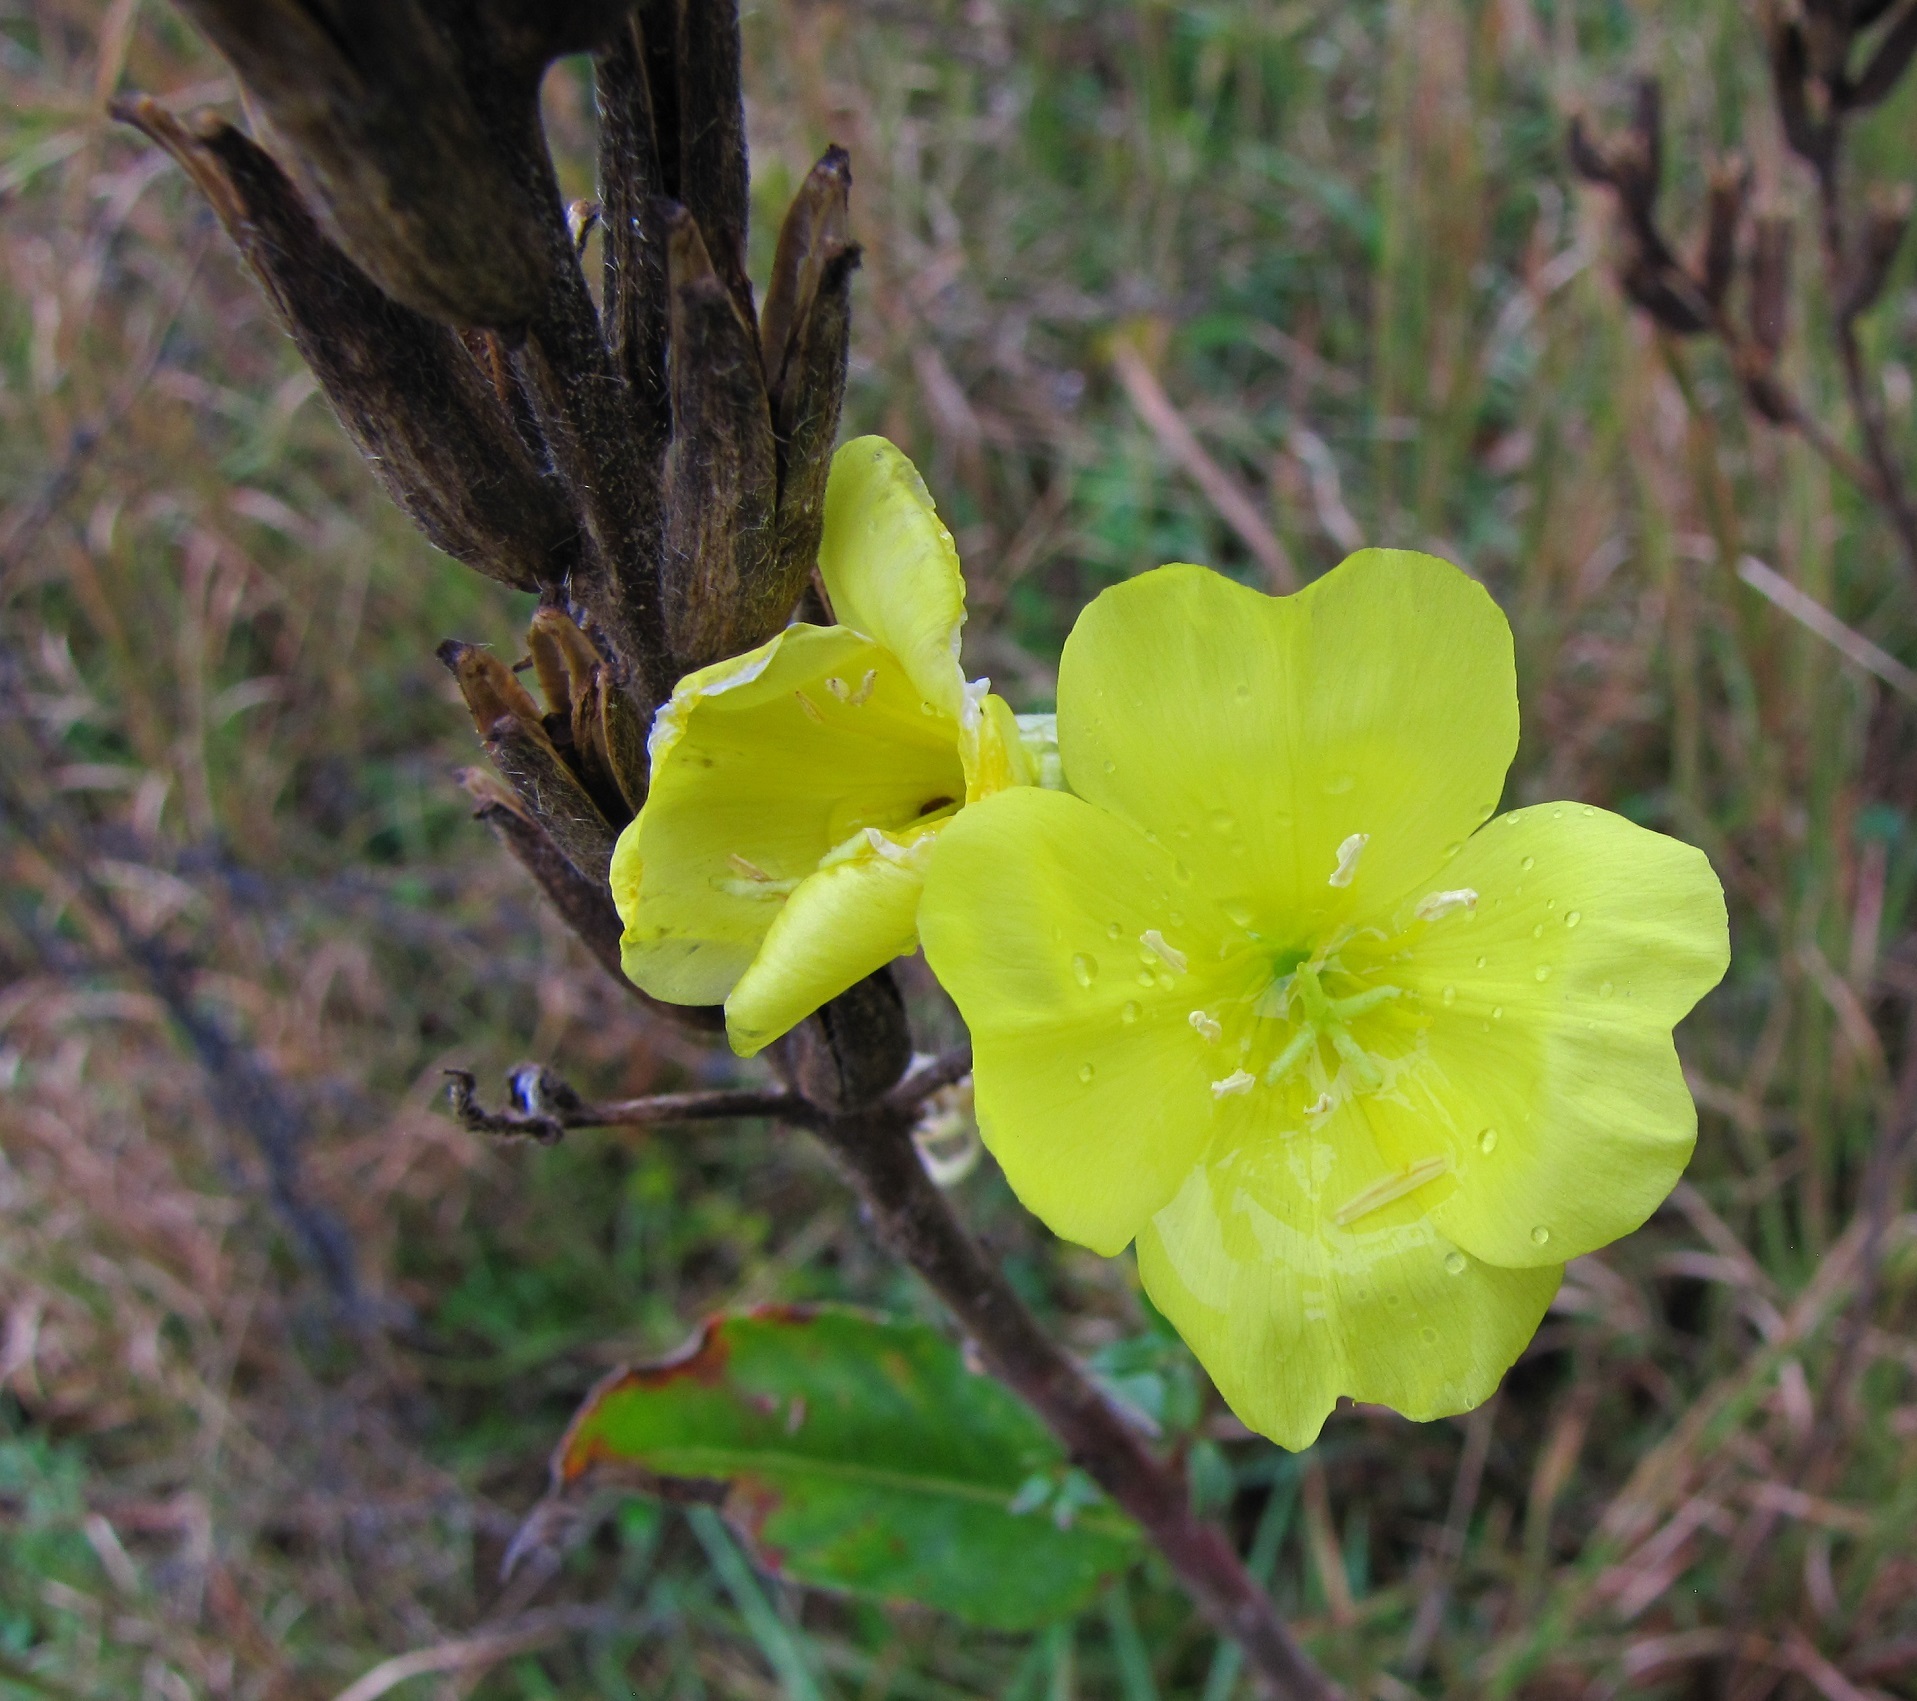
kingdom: Plantae
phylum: Tracheophyta
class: Magnoliopsida
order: Myrtales
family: Onagraceae
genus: Oenothera
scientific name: Oenothera biennis
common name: Common evening-primrose
